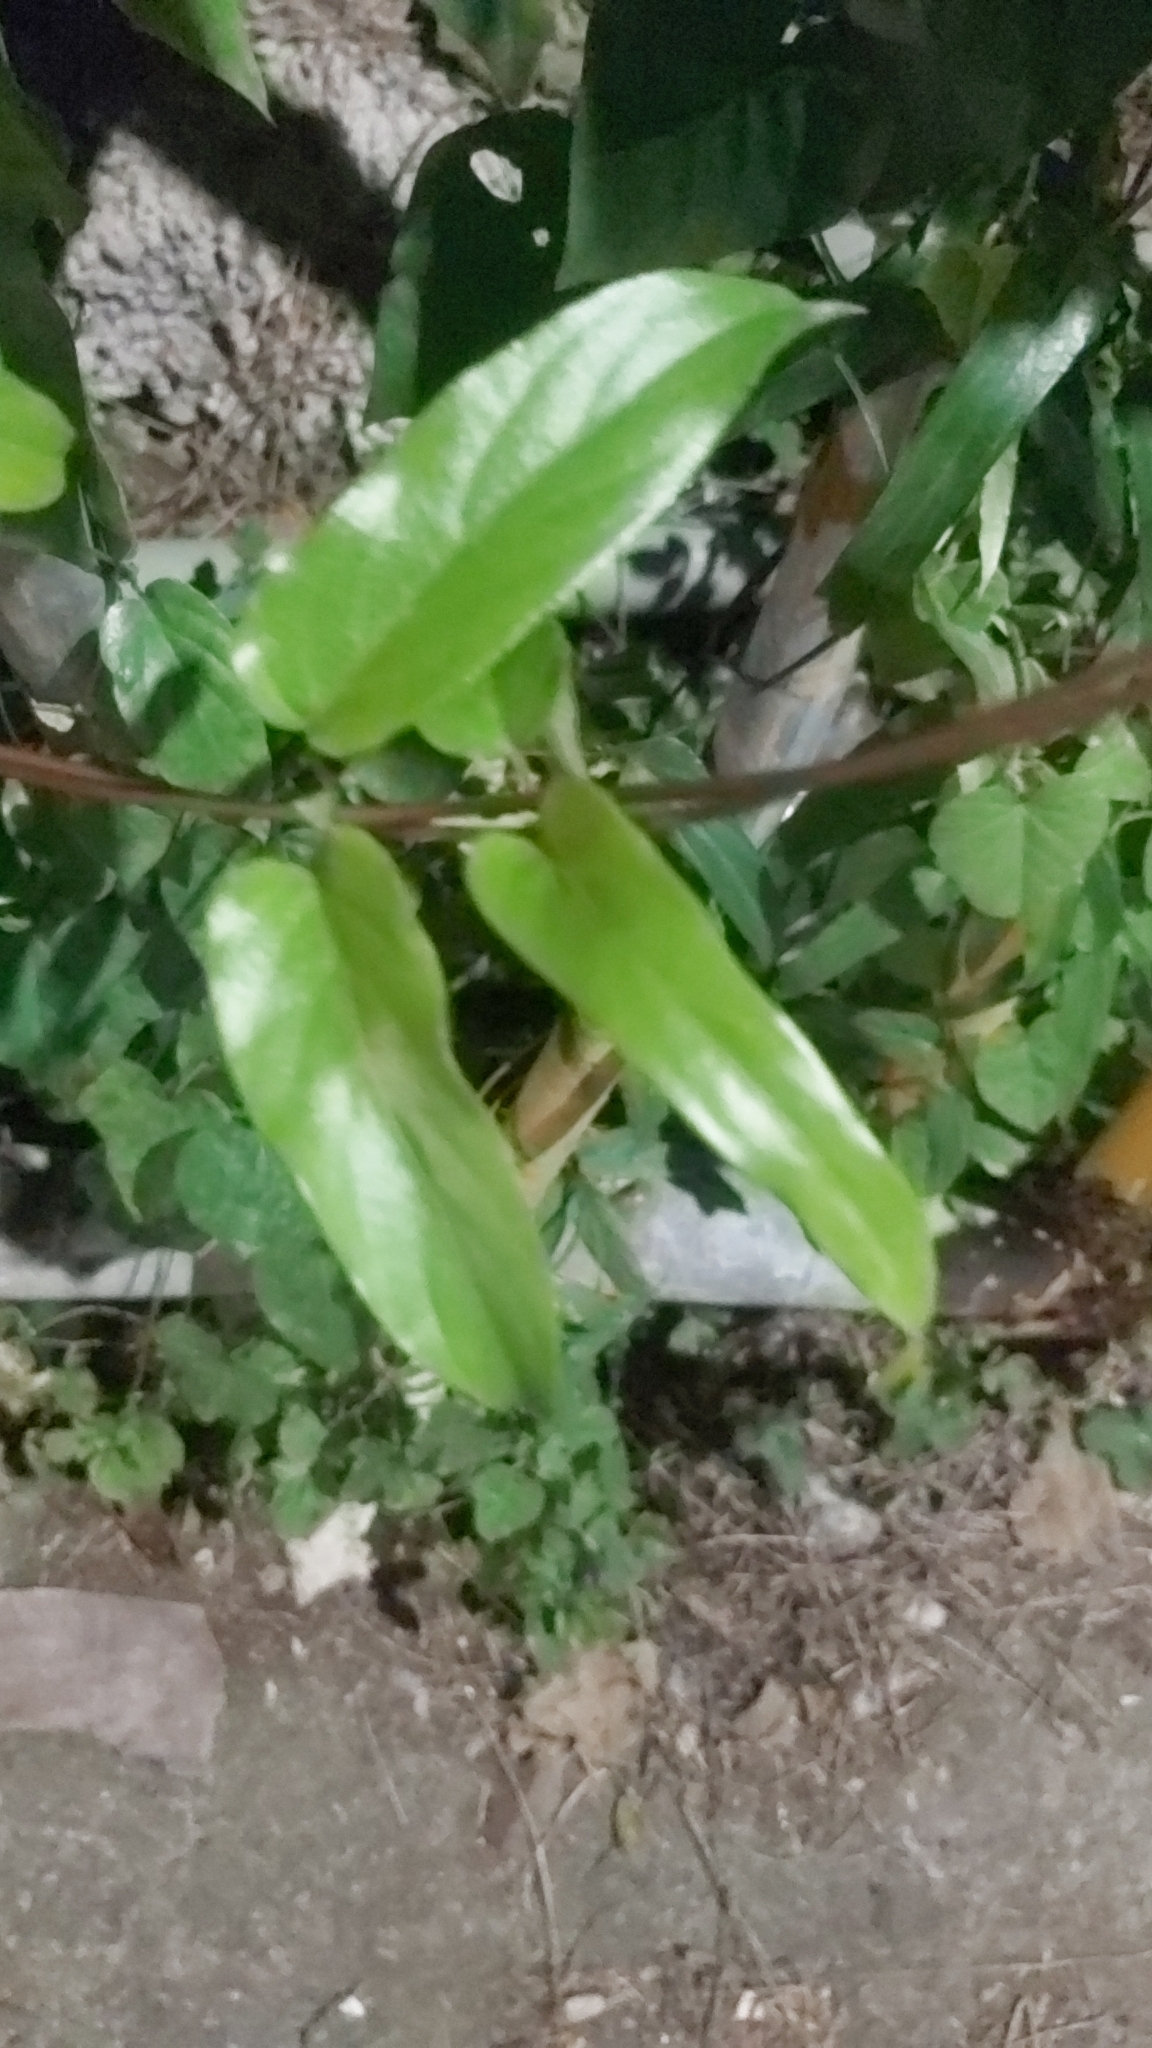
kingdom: Plantae
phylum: Tracheophyta
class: Magnoliopsida
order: Gentianales
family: Rubiaceae
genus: Paederia
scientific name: Paederia foetida
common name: Stinkvine
